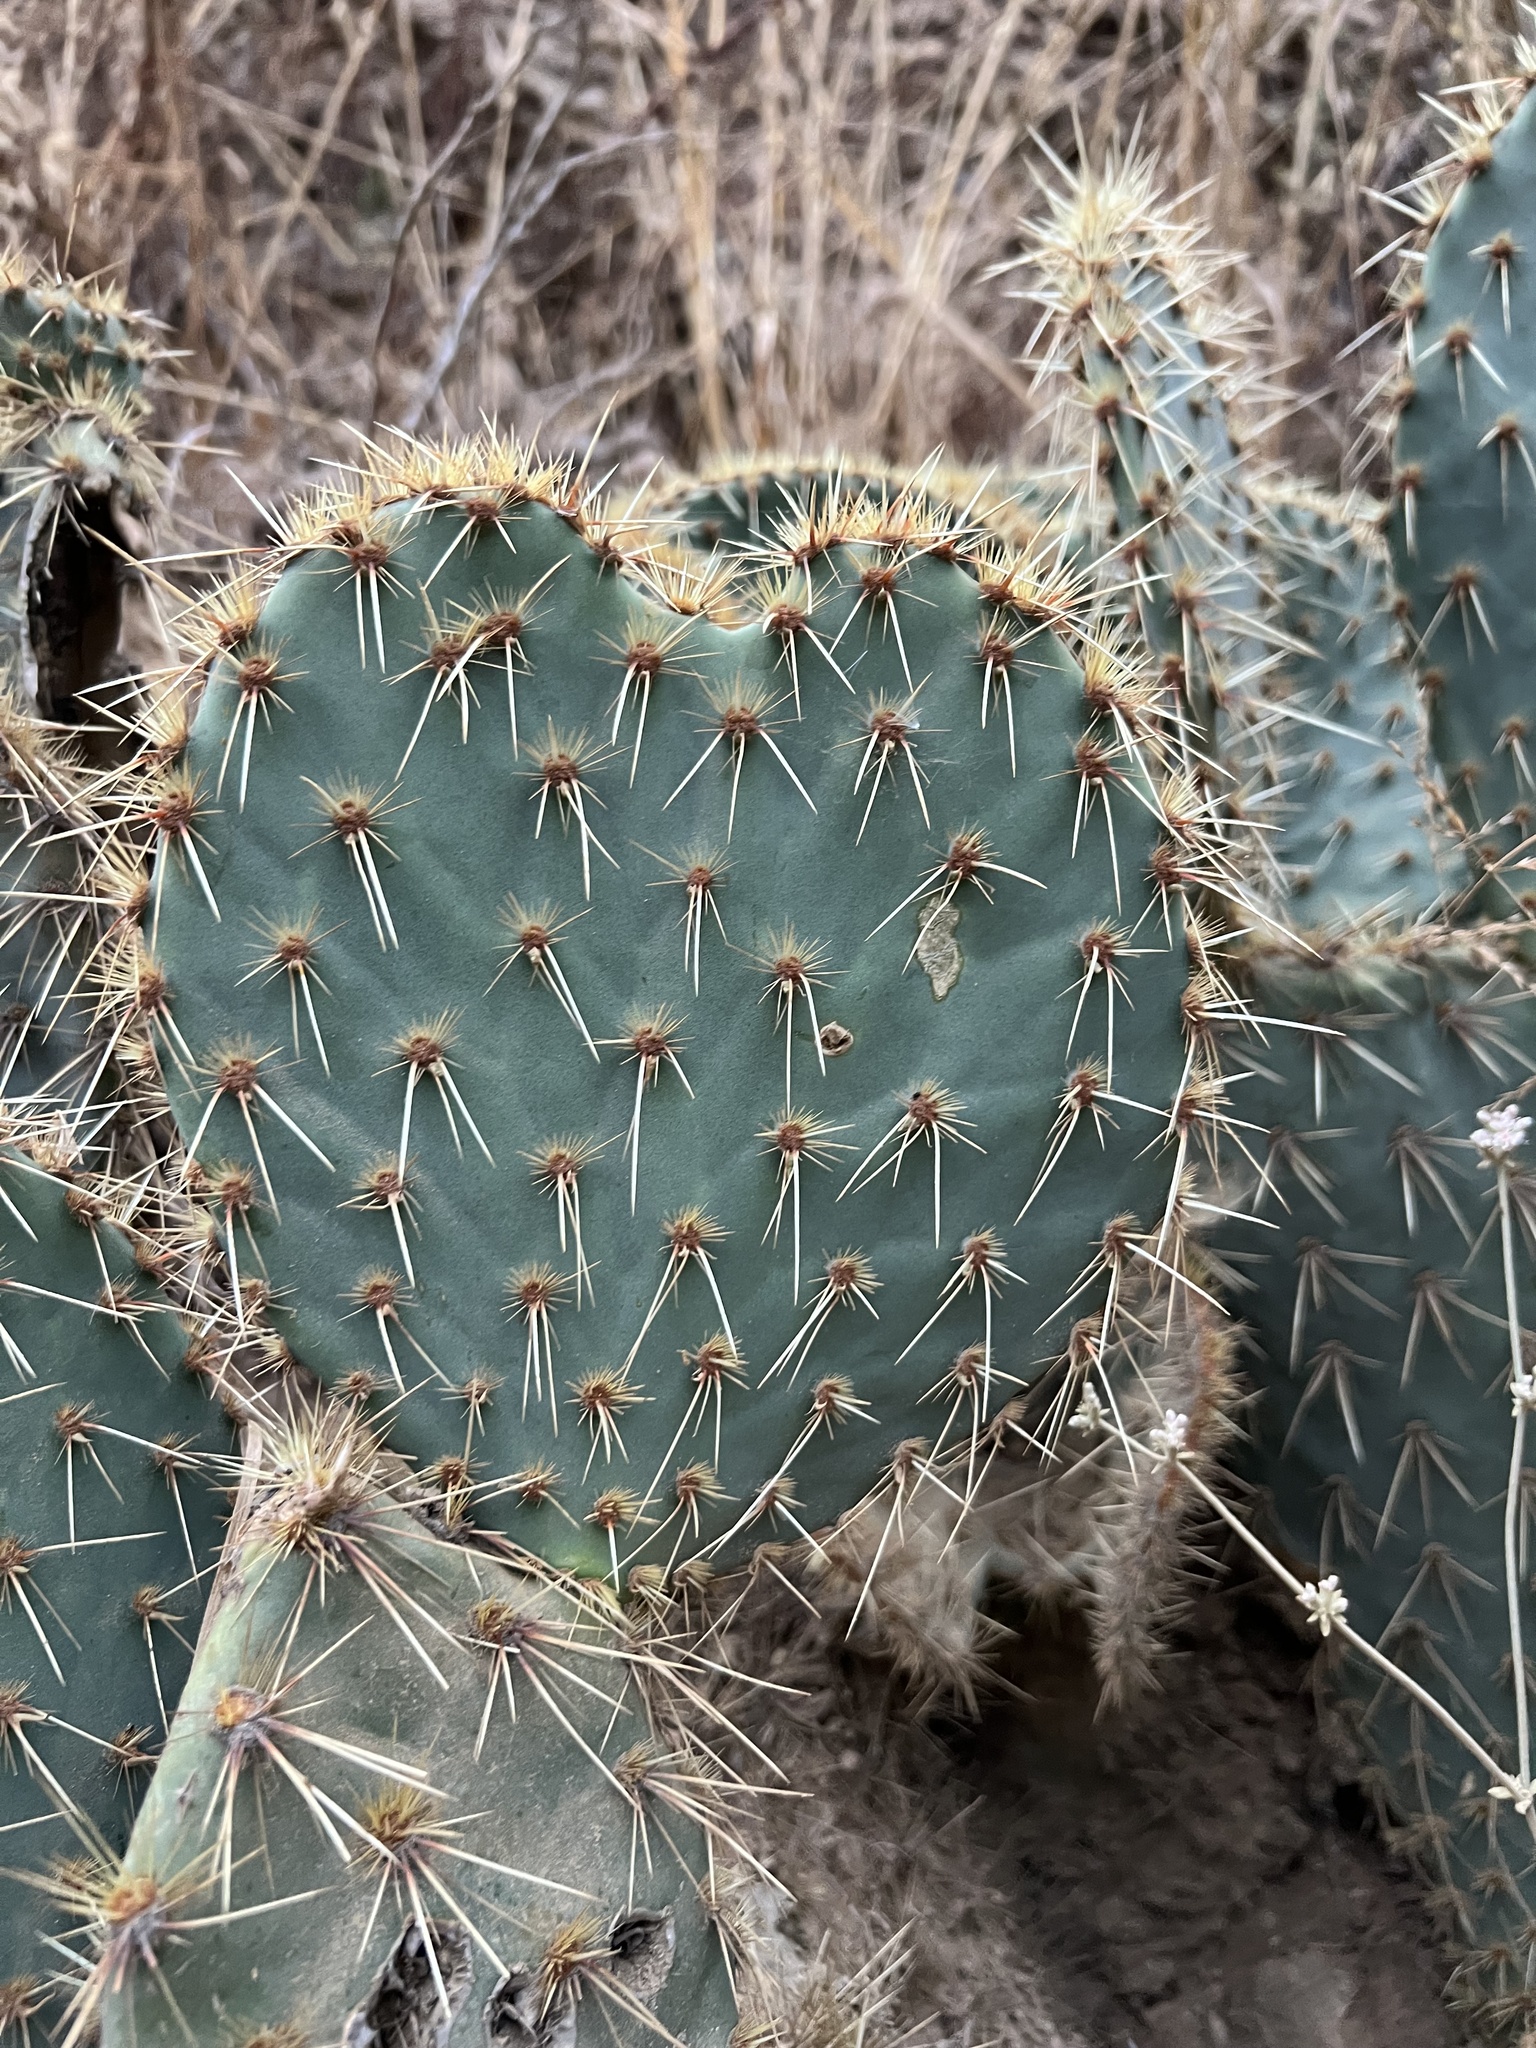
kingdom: Plantae
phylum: Tracheophyta
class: Magnoliopsida
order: Caryophyllales
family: Cactaceae
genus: Opuntia
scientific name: Opuntia chlorotica
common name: Dollar-joint prickly-pear
